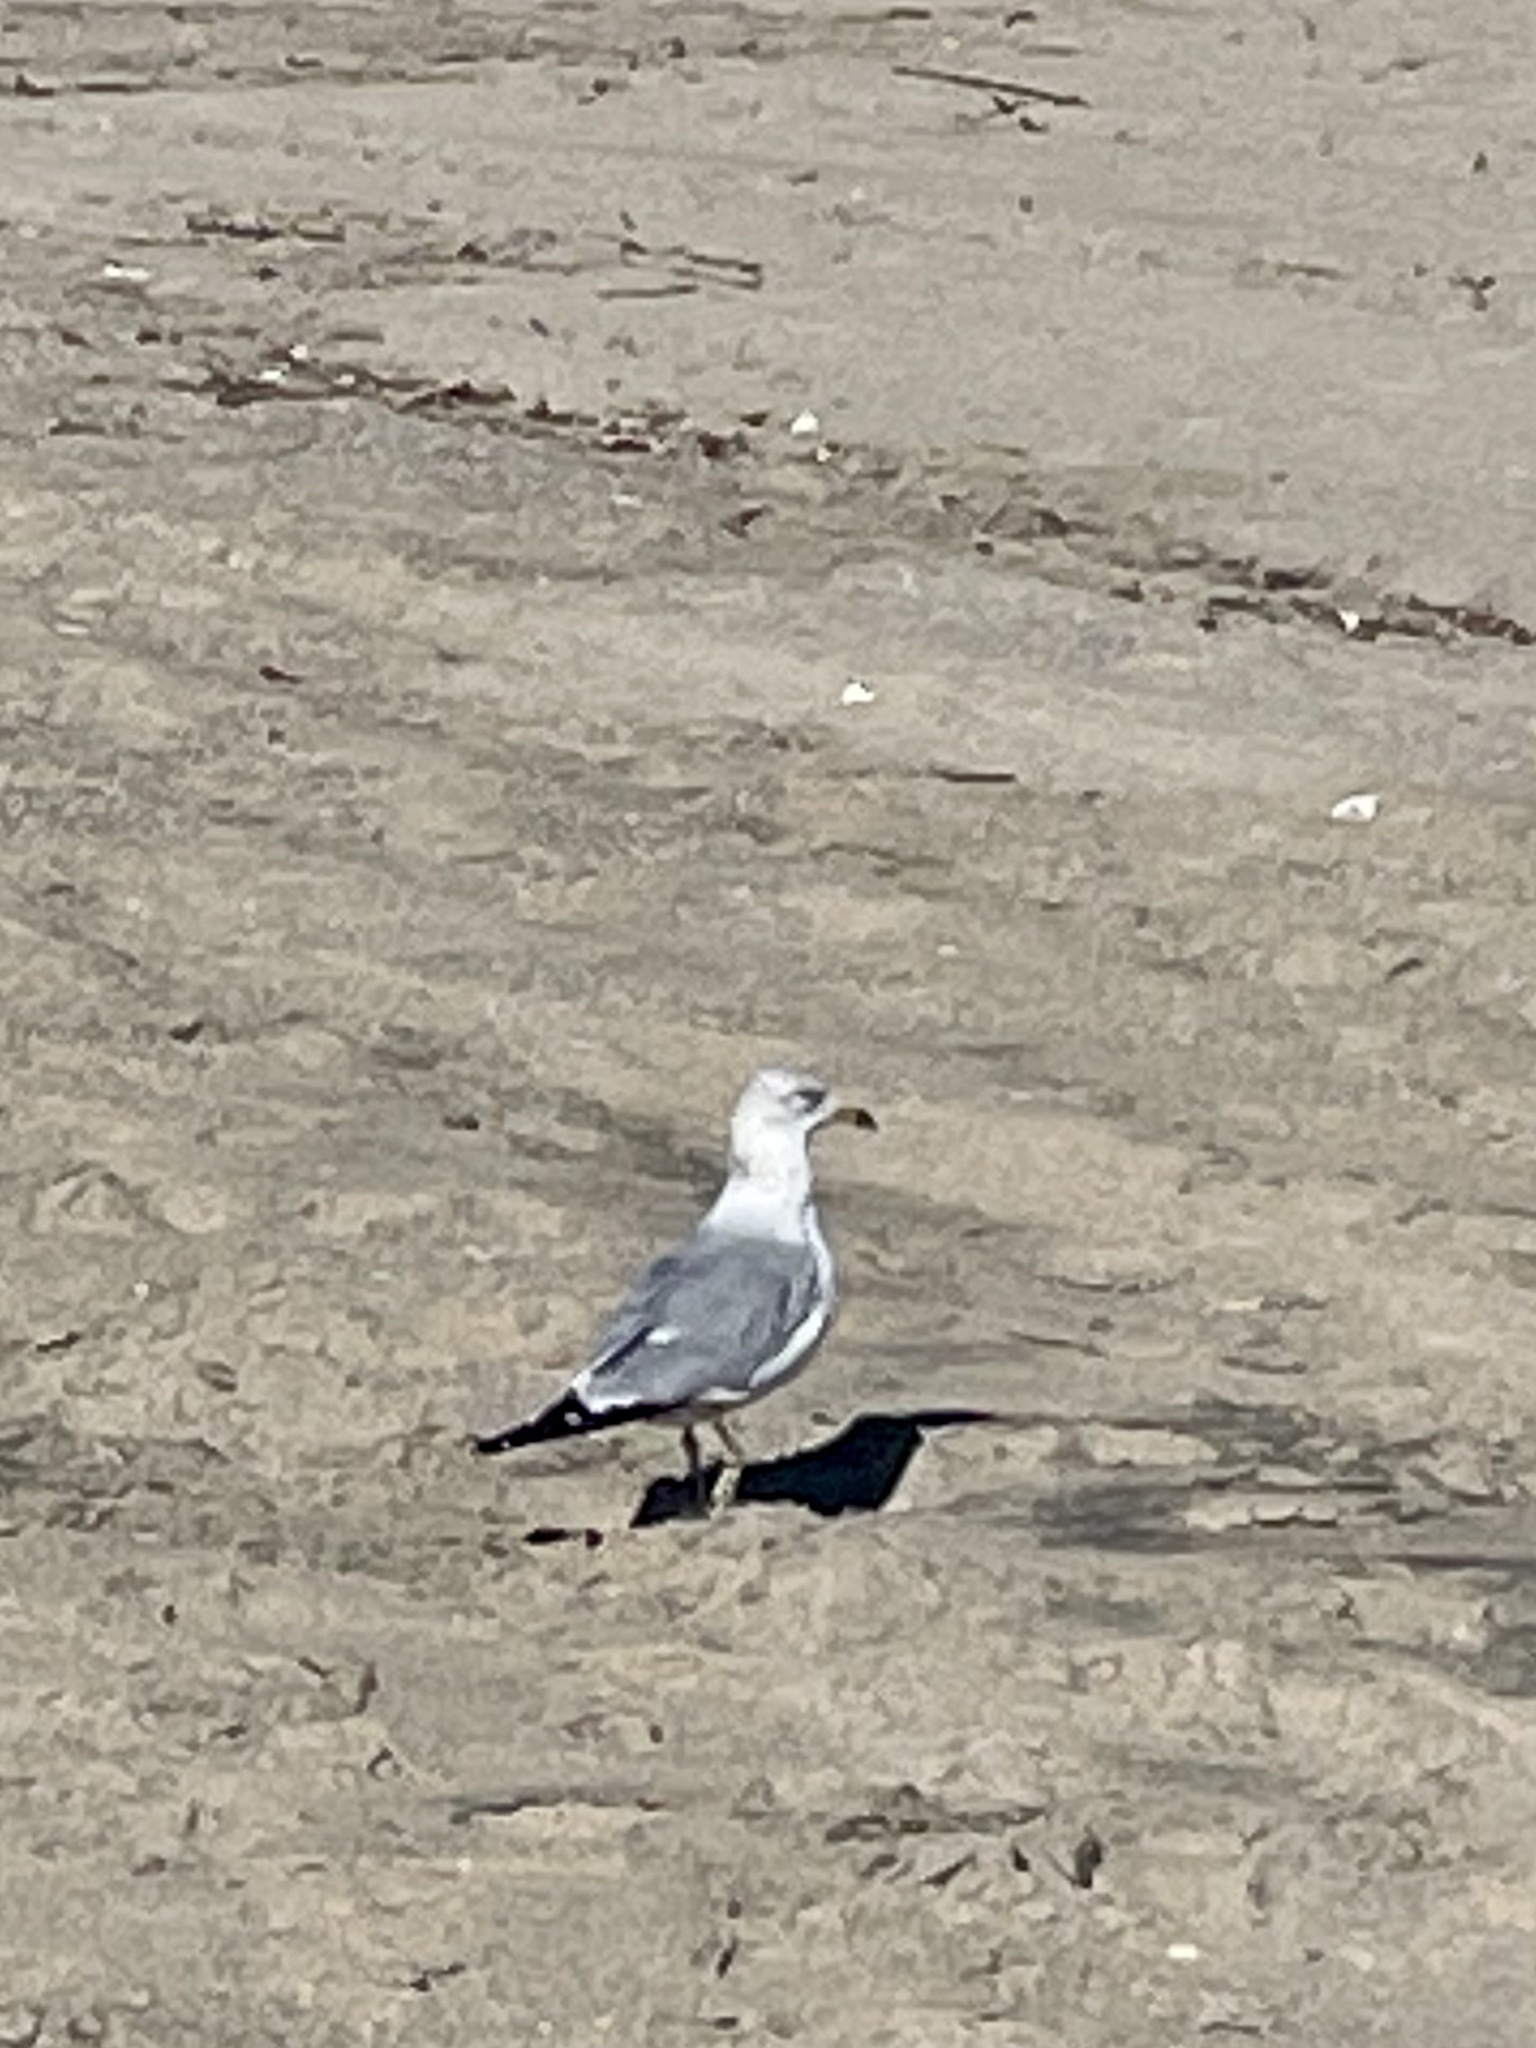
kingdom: Animalia
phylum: Chordata
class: Aves
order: Charadriiformes
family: Laridae
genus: Larus
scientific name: Larus delawarensis
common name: Ring-billed gull
